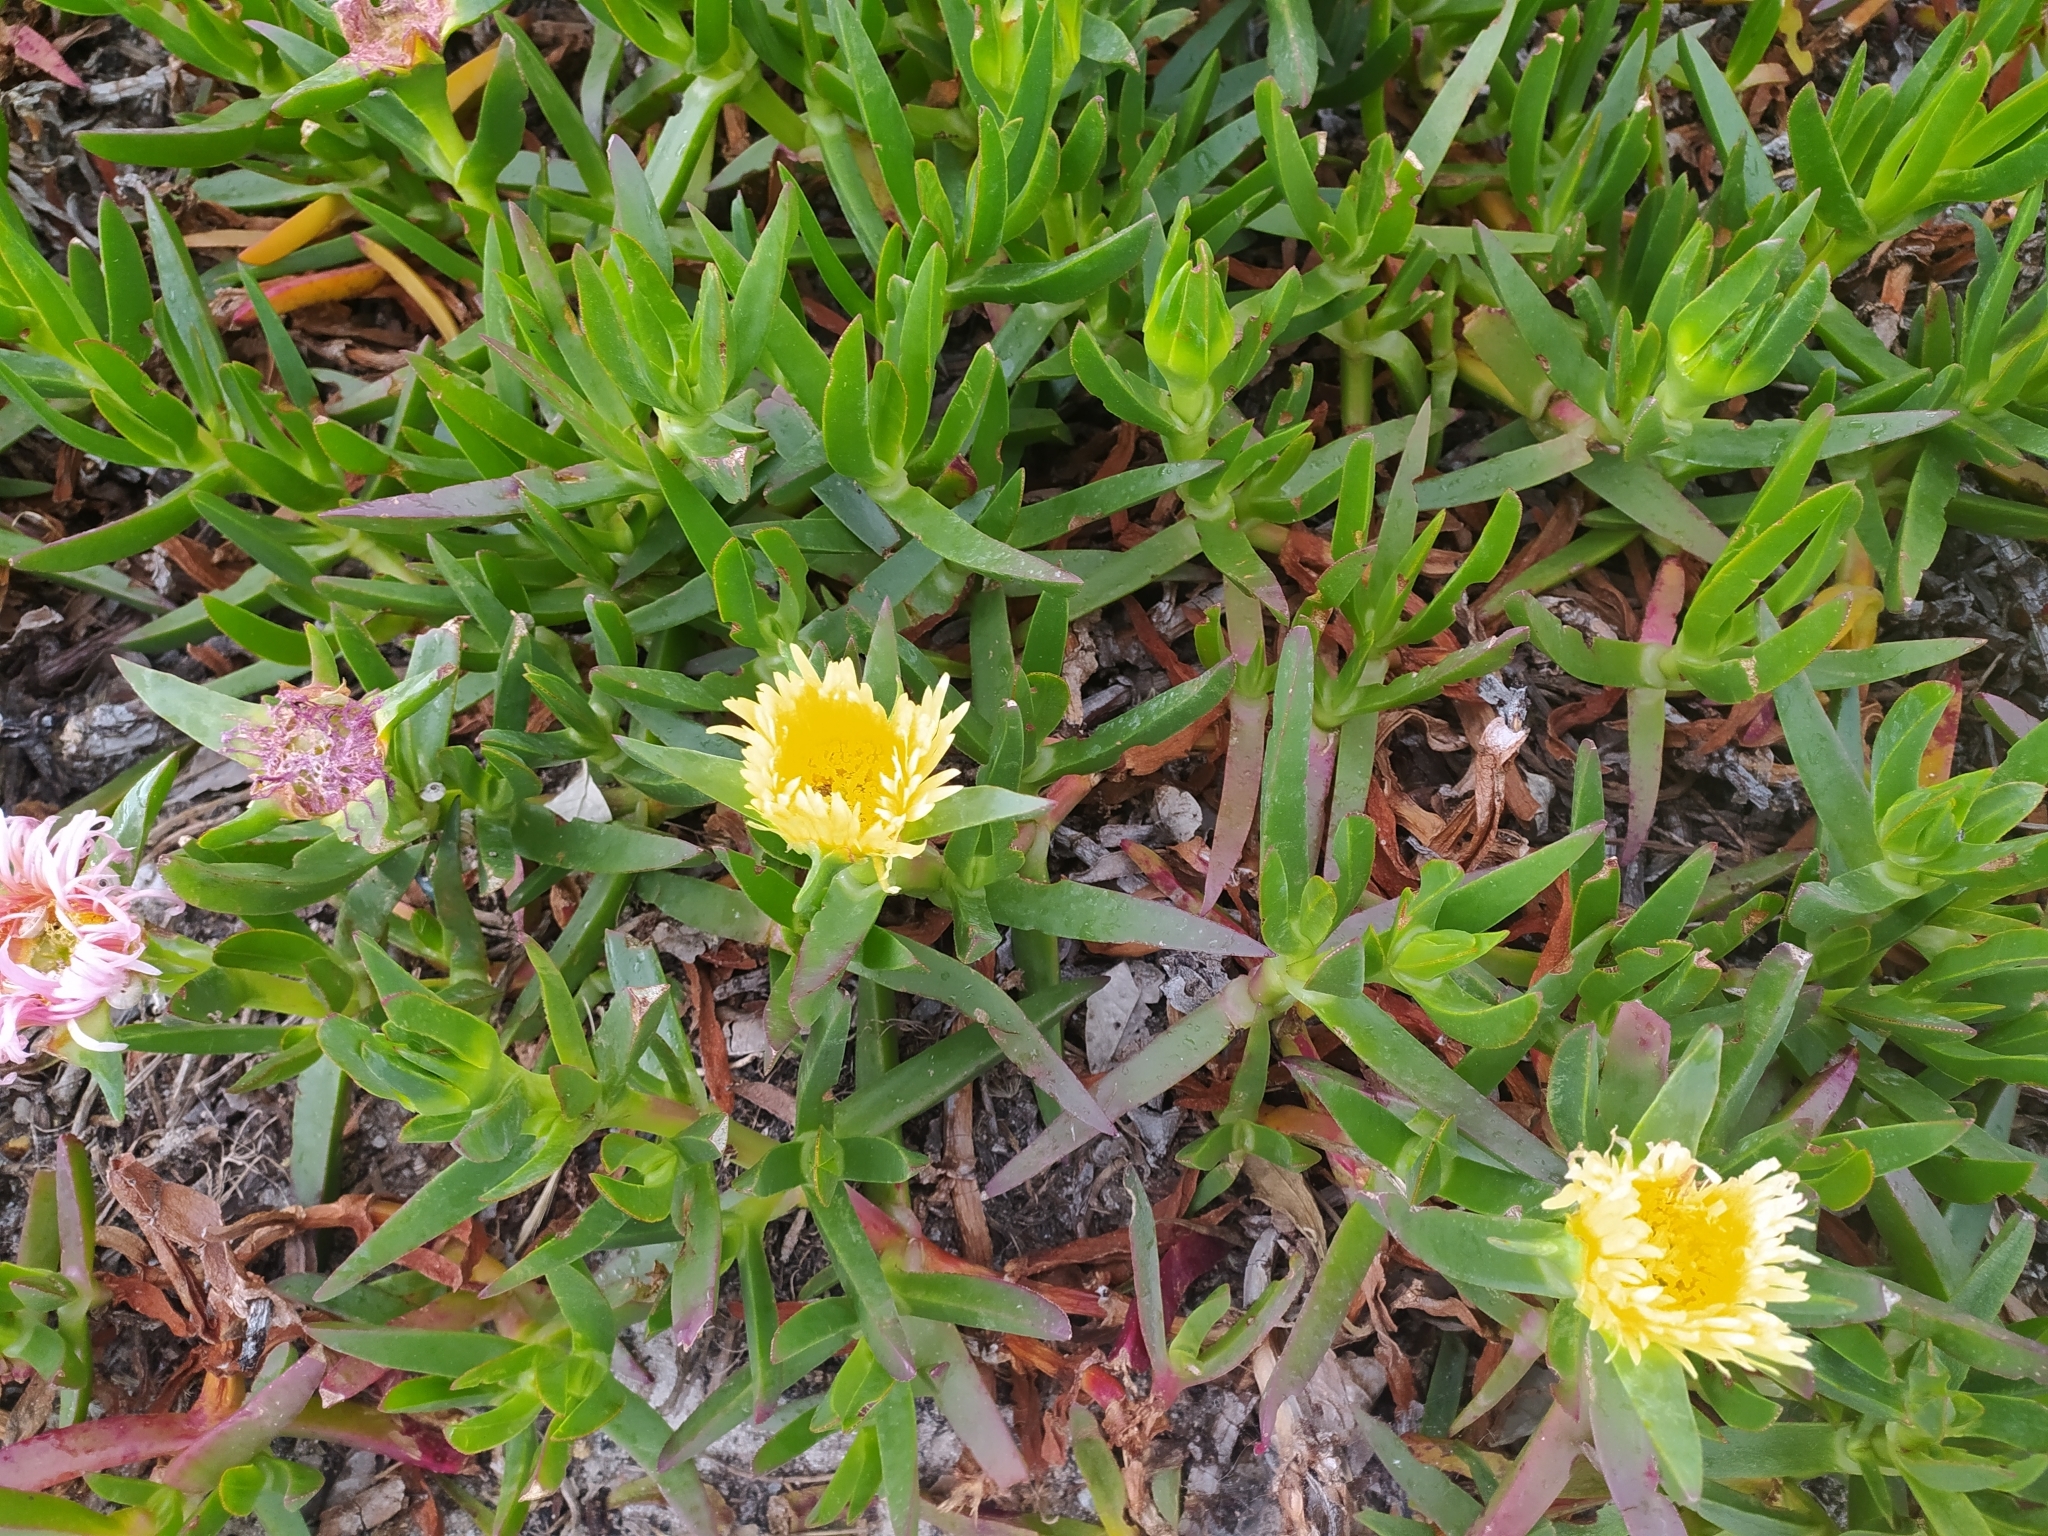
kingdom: Plantae
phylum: Tracheophyta
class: Magnoliopsida
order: Caryophyllales
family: Aizoaceae
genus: Carpobrotus
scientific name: Carpobrotus edulis
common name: Hottentot-fig
